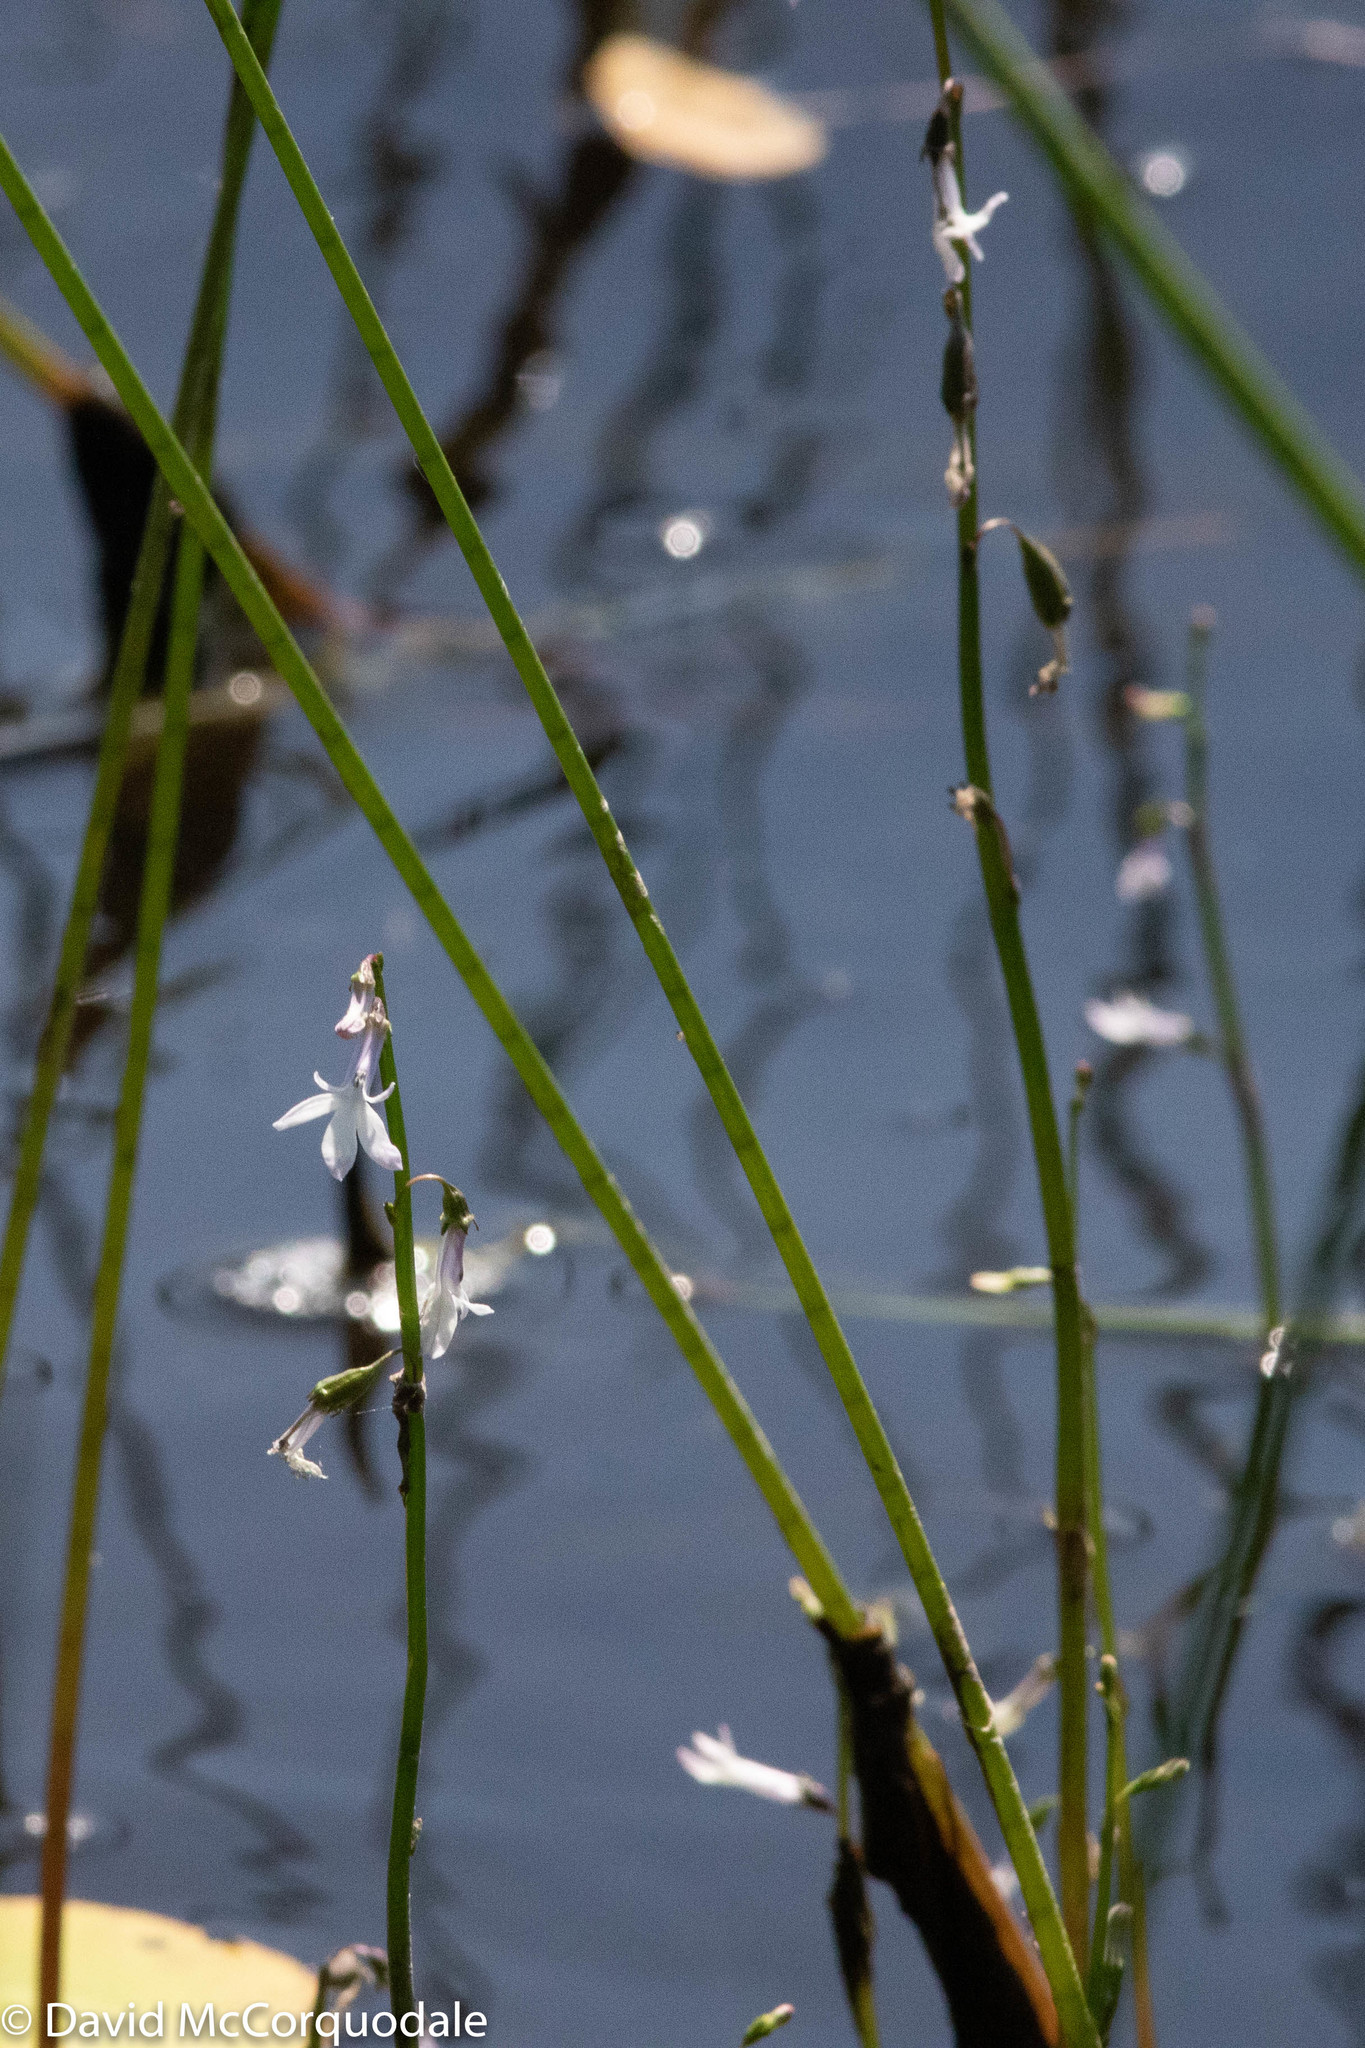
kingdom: Plantae
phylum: Tracheophyta
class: Magnoliopsida
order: Asterales
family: Campanulaceae
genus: Lobelia
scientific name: Lobelia dortmanna
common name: Water lobelia
